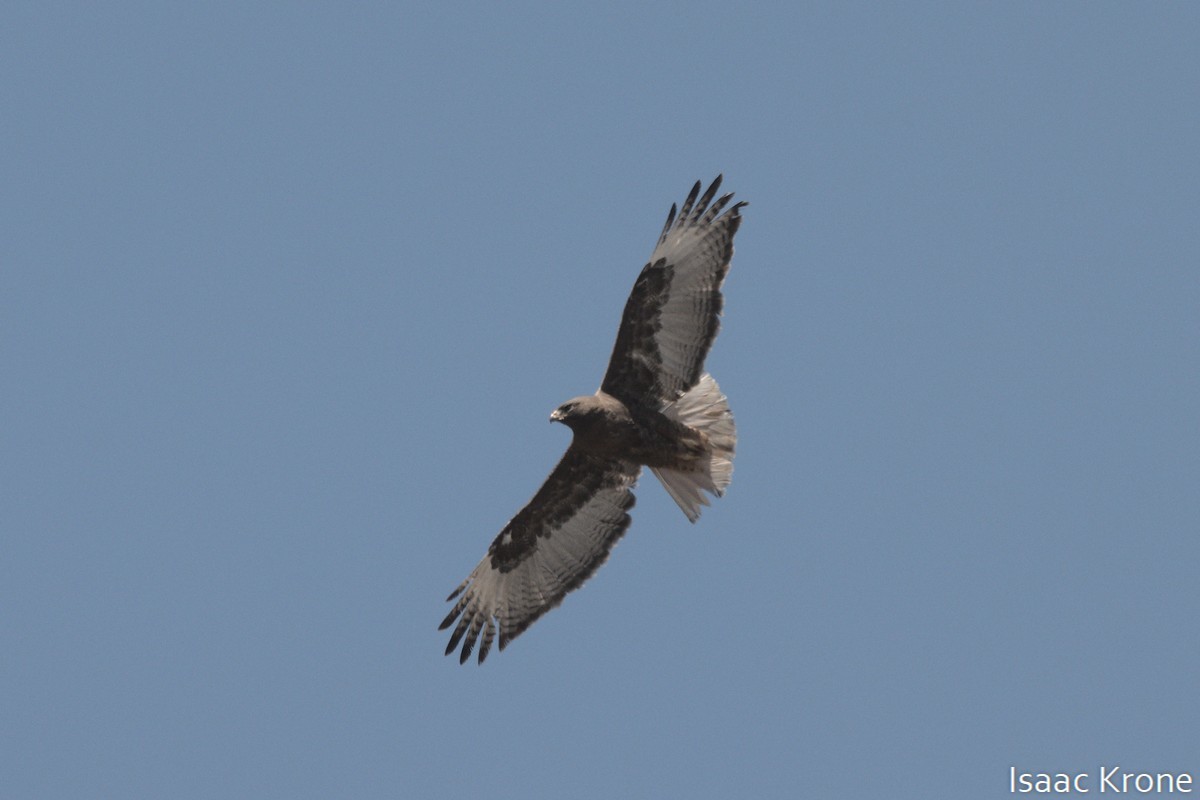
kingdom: Animalia
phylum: Chordata
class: Aves
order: Accipitriformes
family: Accipitridae
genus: Buteo
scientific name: Buteo jamaicensis
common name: Red-tailed hawk
